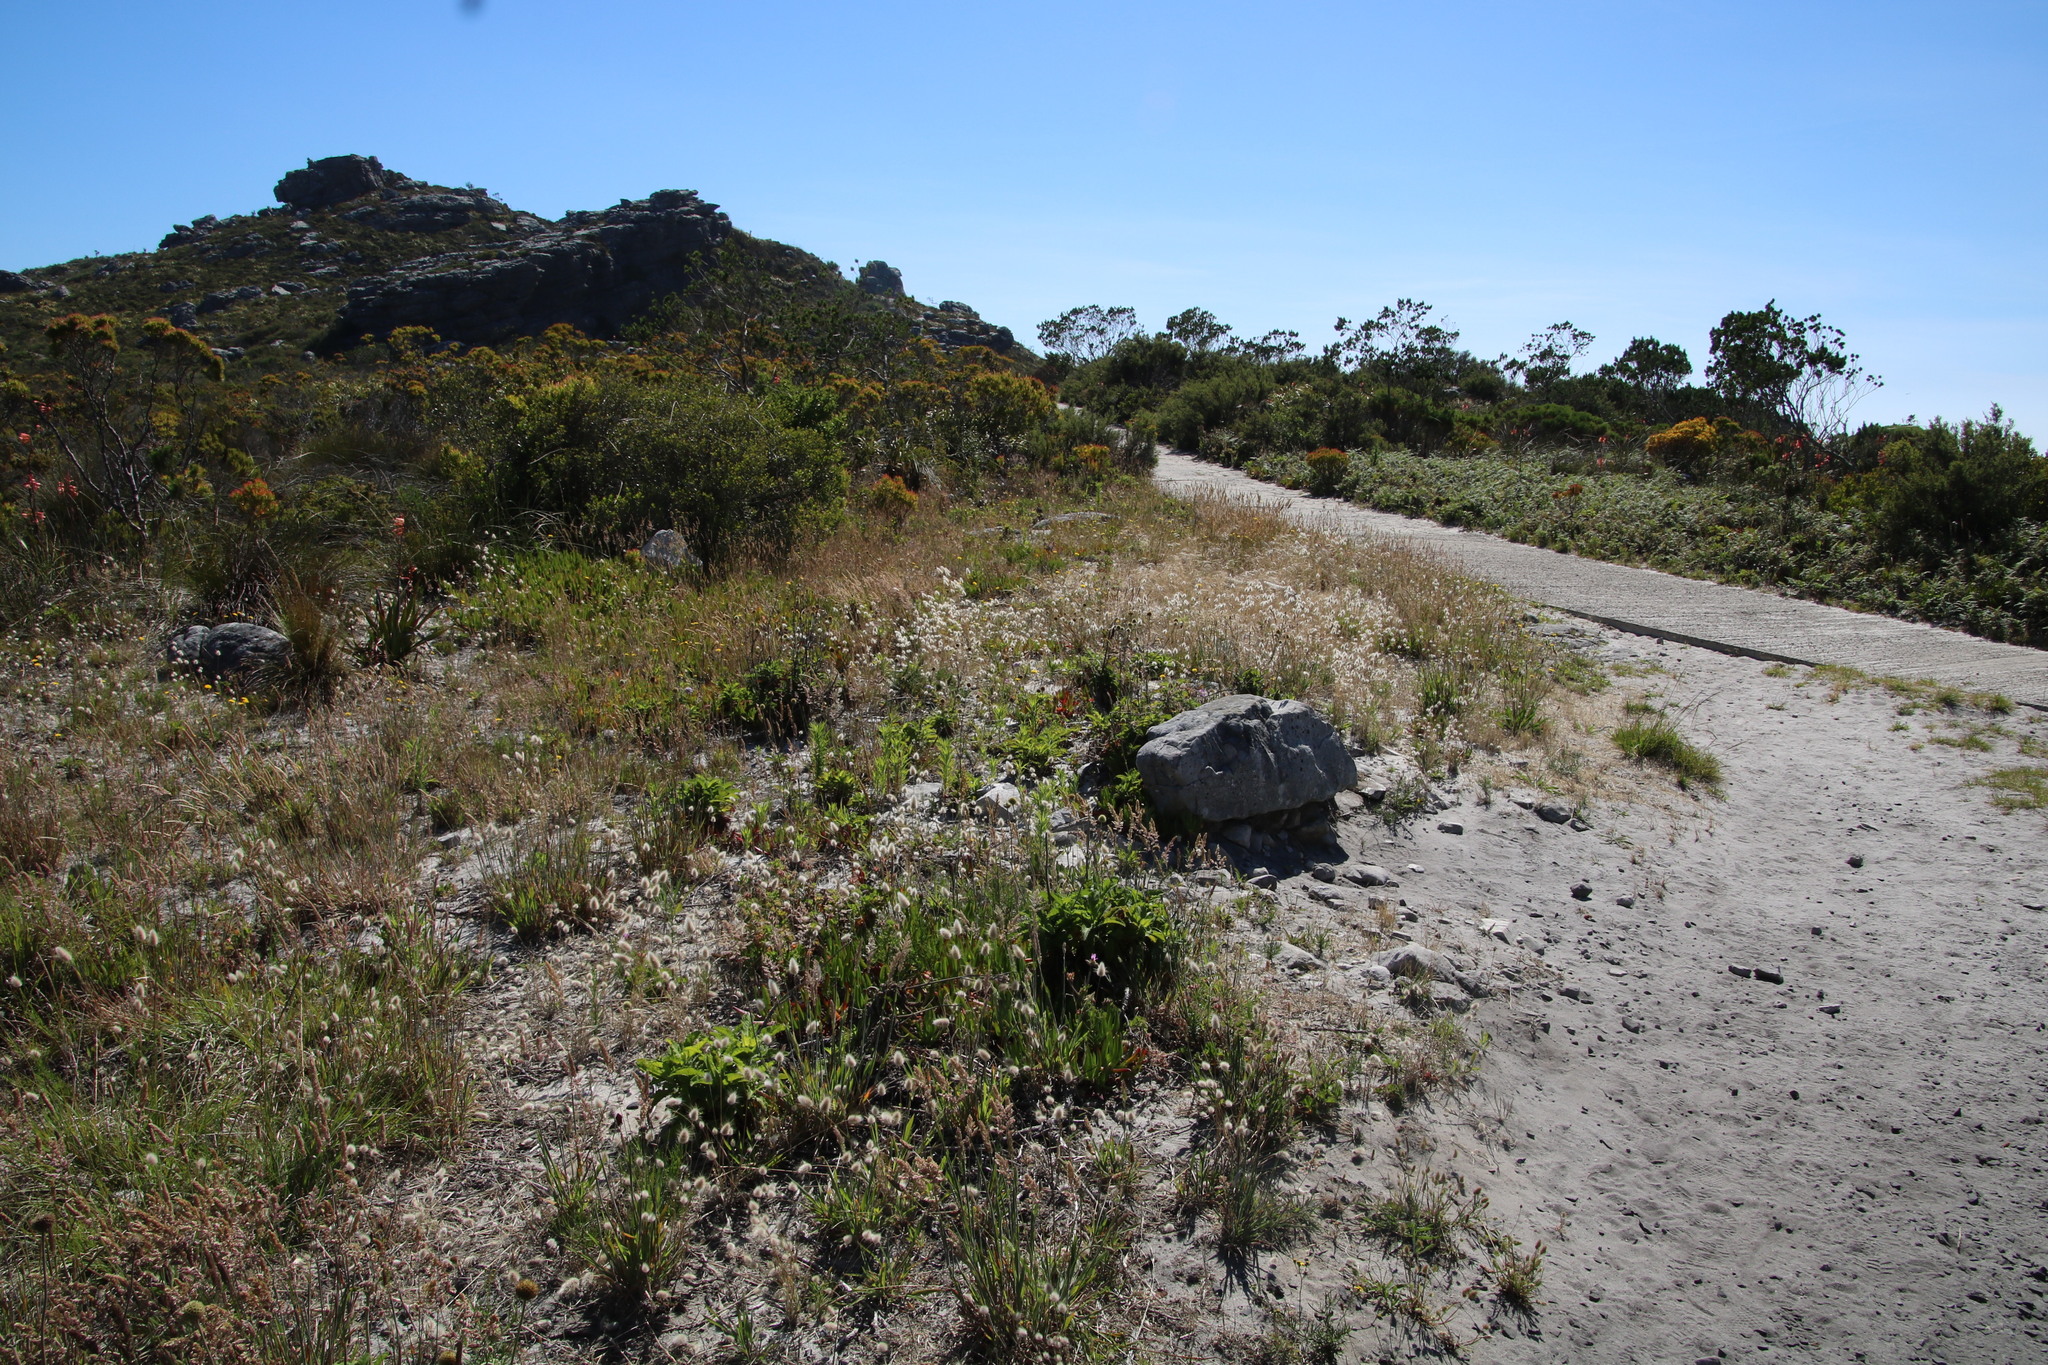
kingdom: Plantae
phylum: Tracheophyta
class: Liliopsida
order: Poales
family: Poaceae
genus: Lagurus
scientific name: Lagurus ovatus
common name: Hare's-tail
